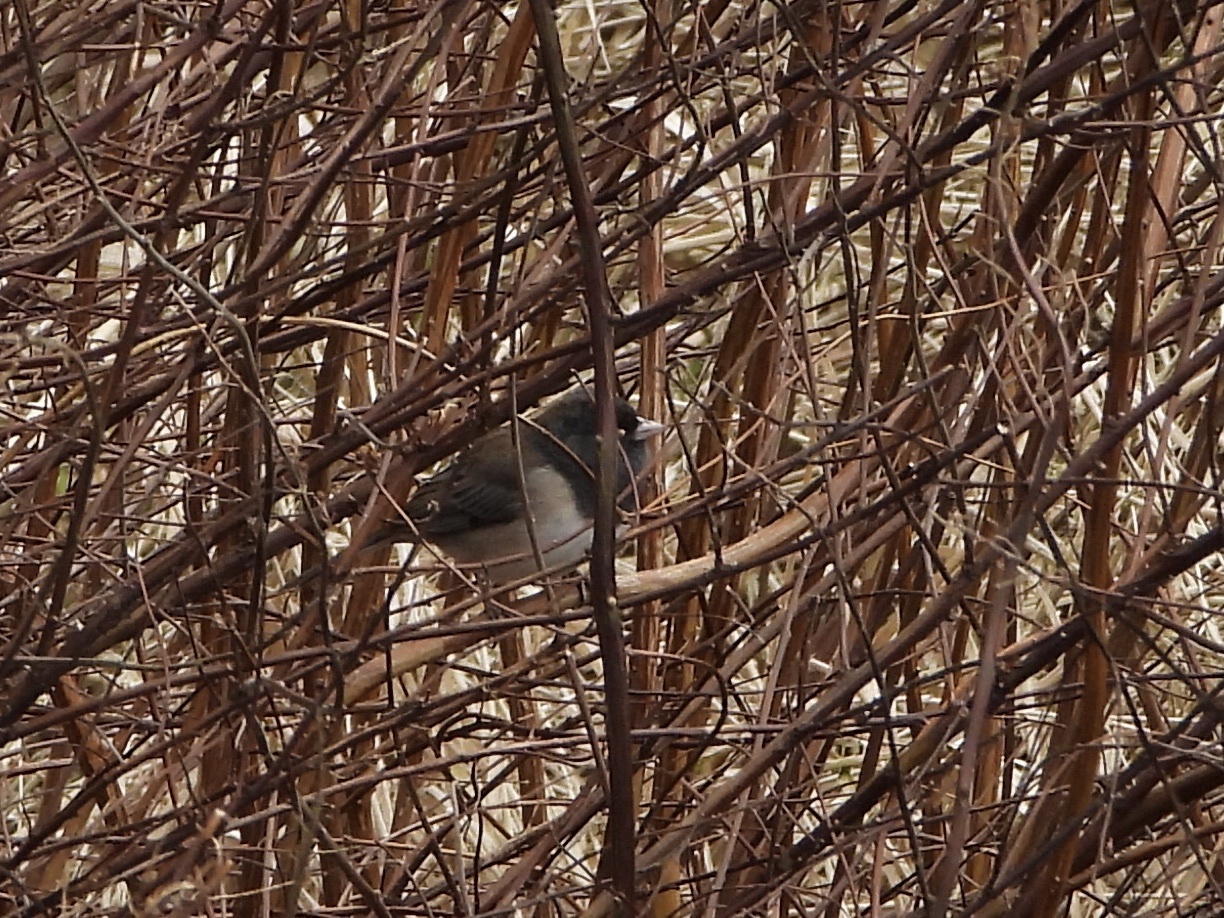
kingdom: Animalia
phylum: Chordata
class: Aves
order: Passeriformes
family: Passerellidae
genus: Junco
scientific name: Junco hyemalis
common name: Dark-eyed junco
